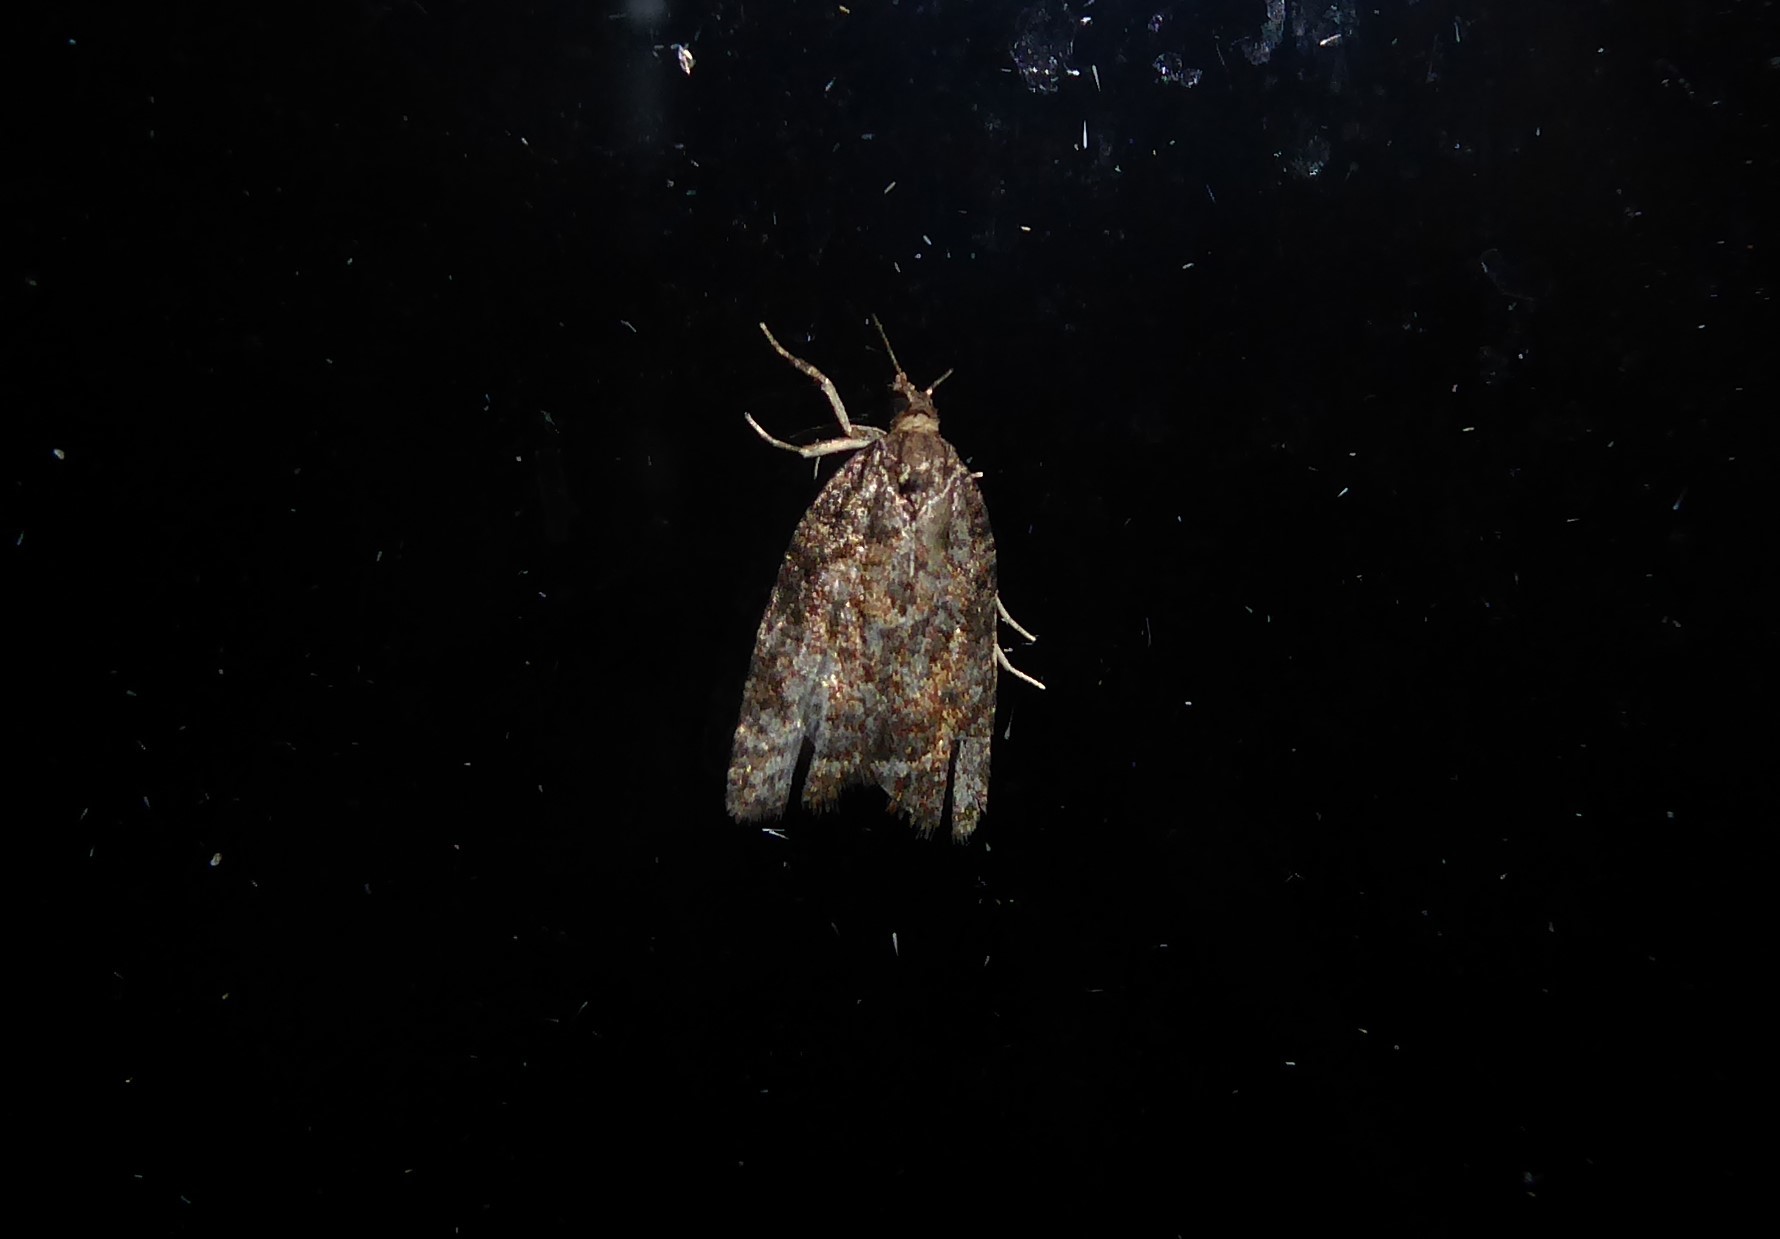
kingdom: Animalia
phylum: Arthropoda
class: Insecta
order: Lepidoptera
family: Tortricidae
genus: Capua
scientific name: Capua intractana
